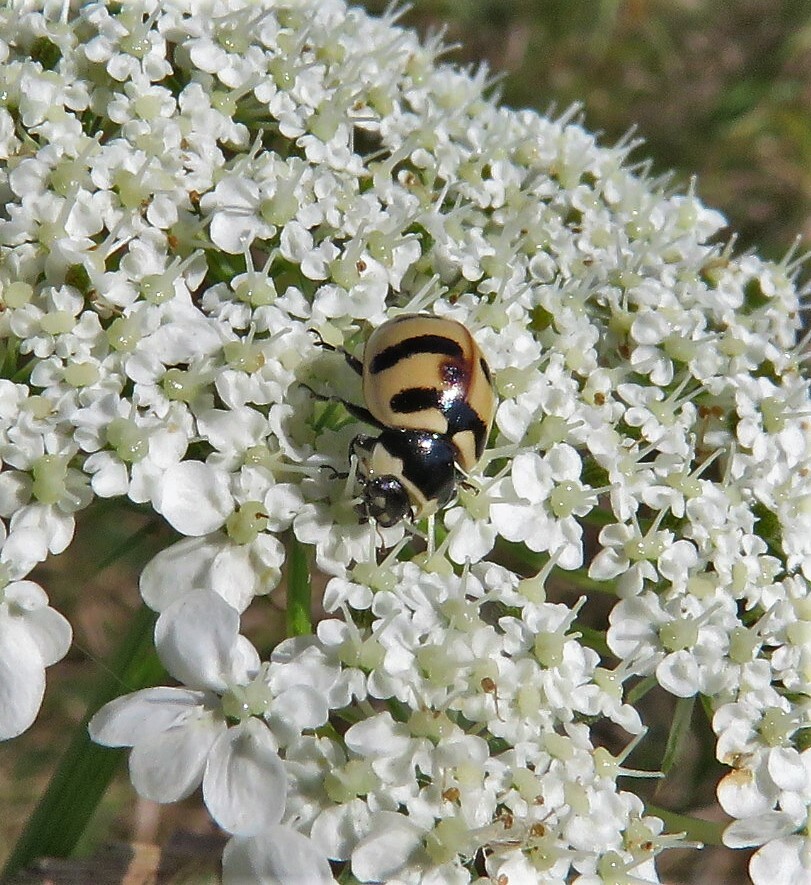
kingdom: Animalia
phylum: Arthropoda
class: Insecta
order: Coleoptera
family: Coccinellidae
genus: Coccinella
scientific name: Coccinella trifasciata
